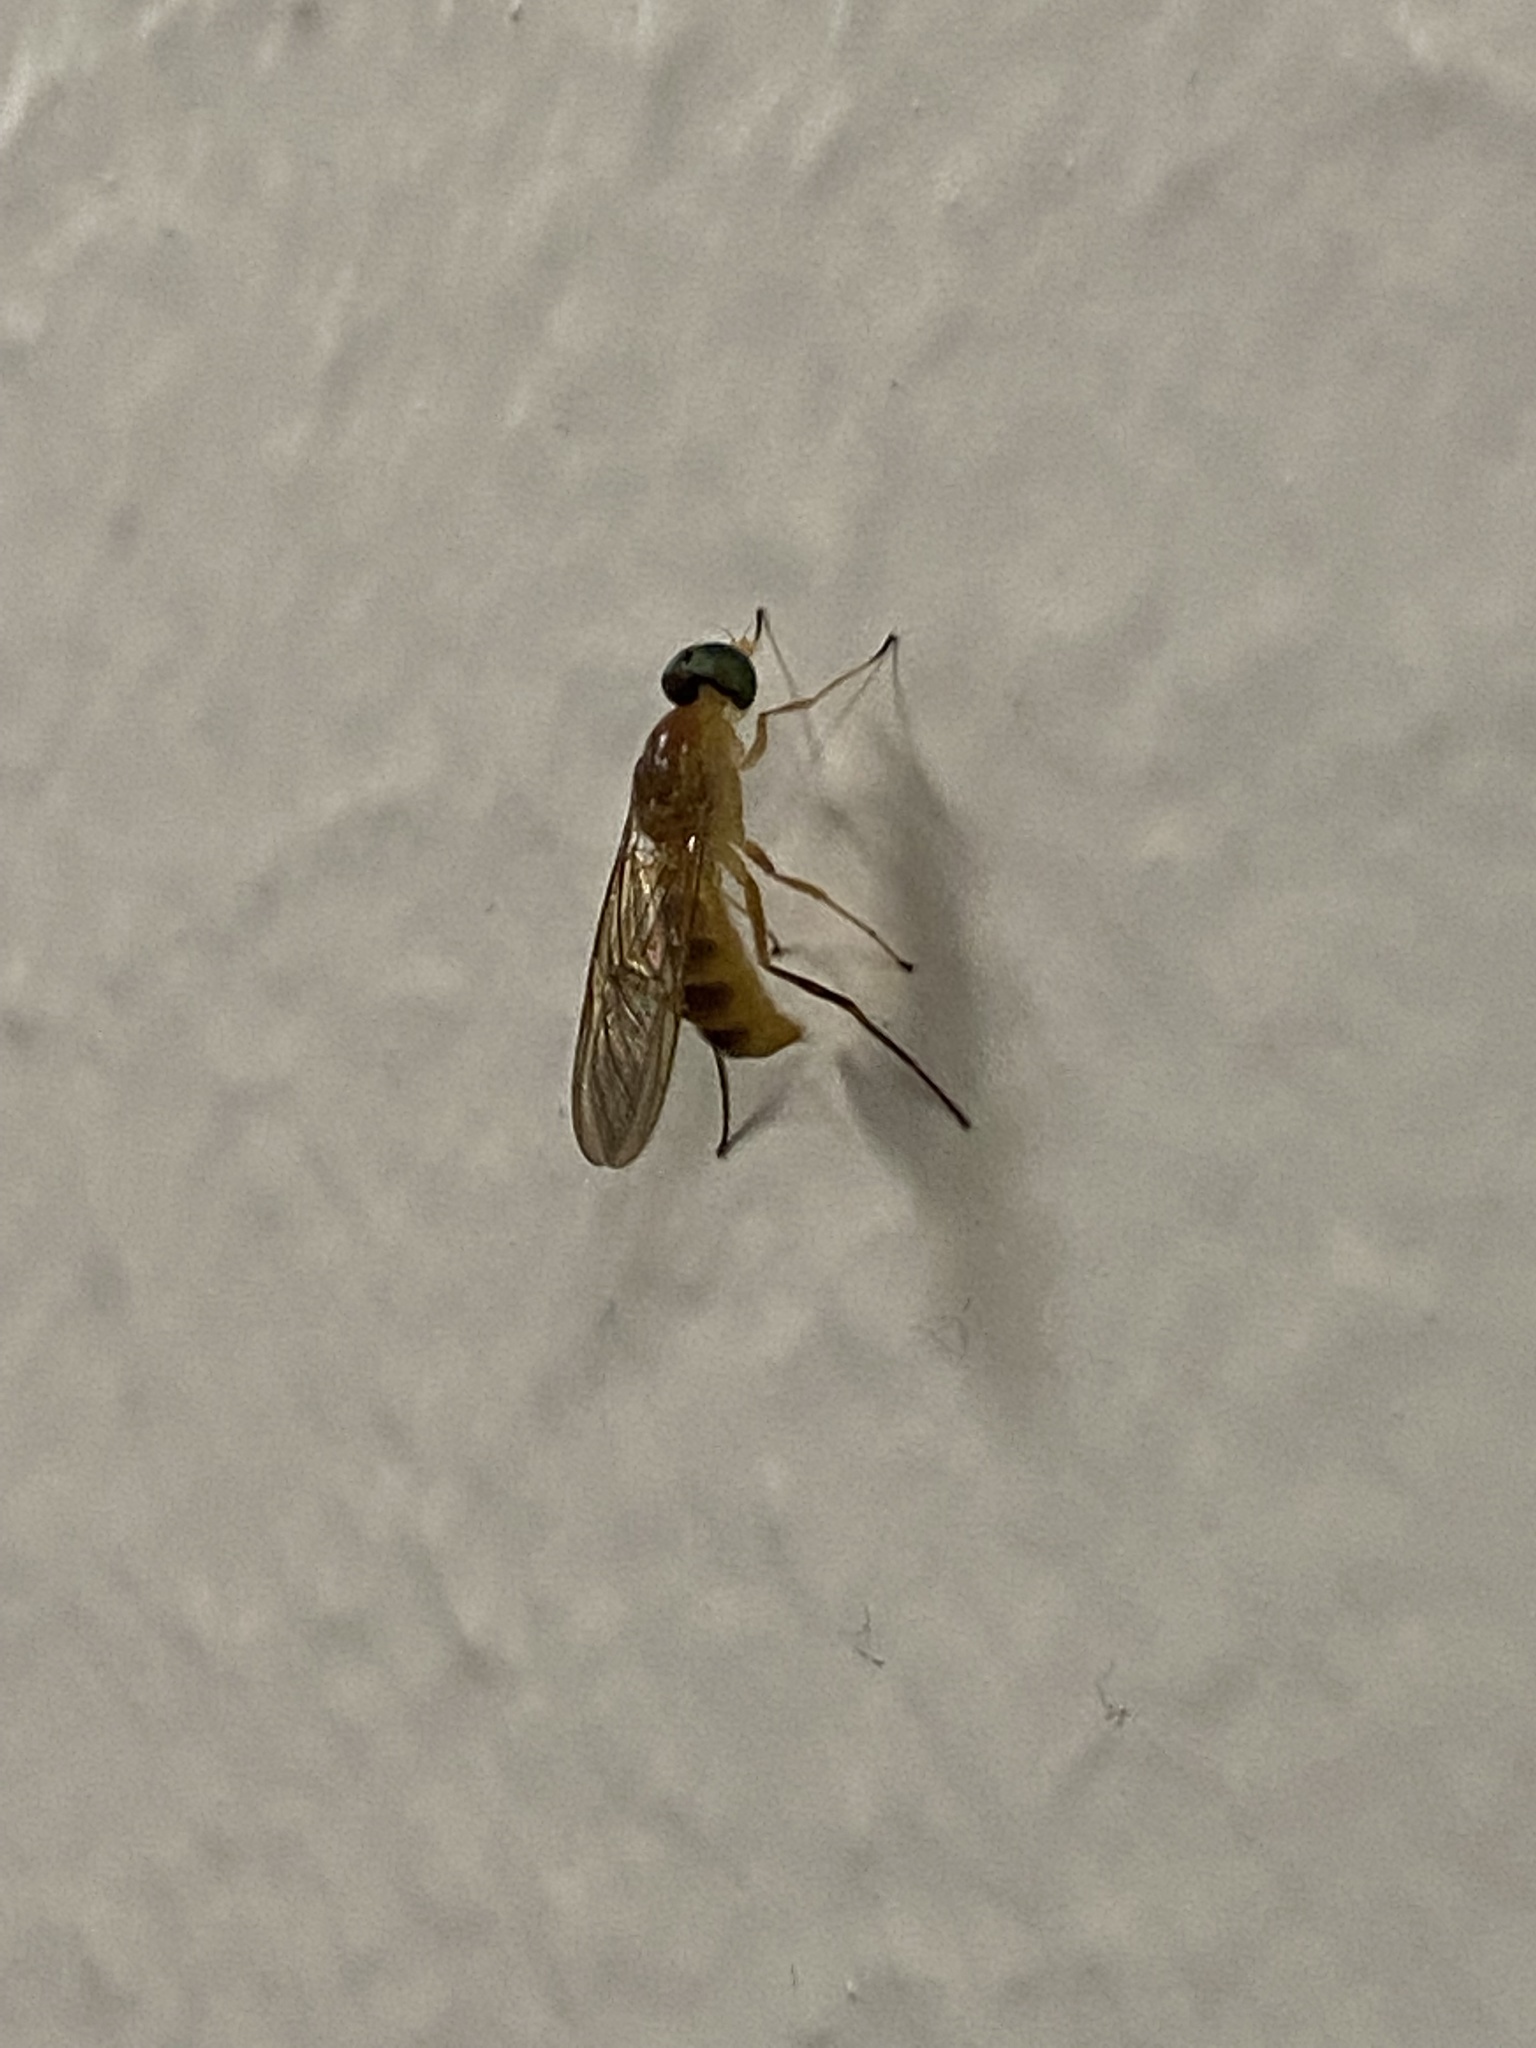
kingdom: Animalia
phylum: Arthropoda
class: Insecta
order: Diptera
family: Stratiomyidae
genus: Ptecticus
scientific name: Ptecticus trivittatus
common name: Compost fly
